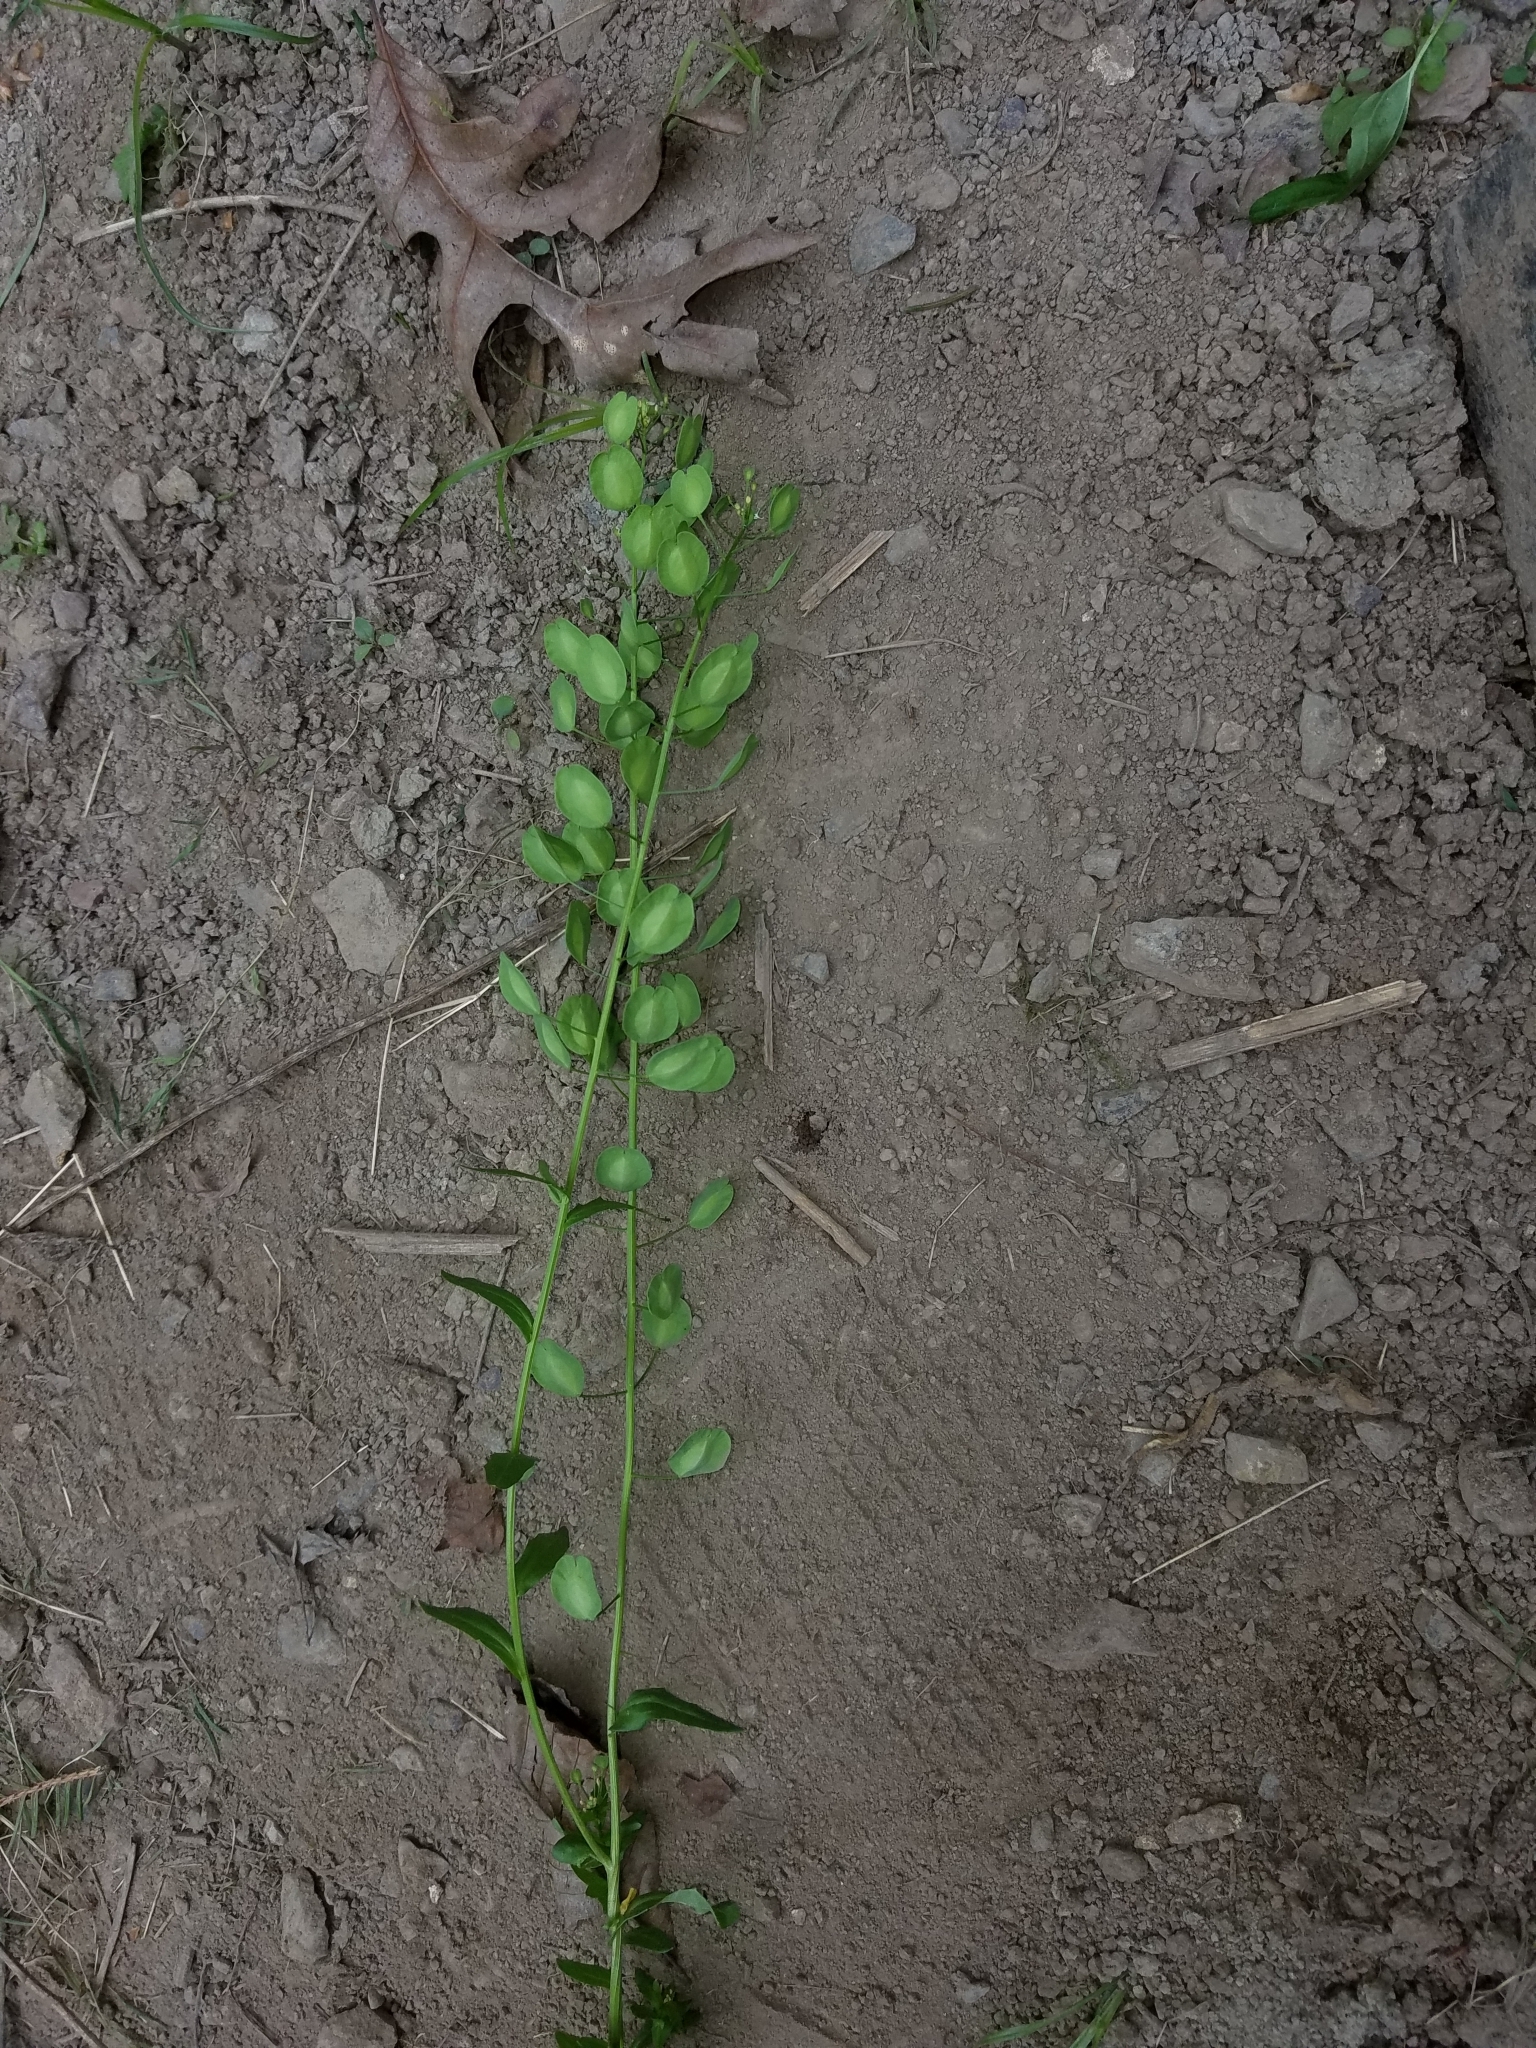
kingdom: Plantae
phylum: Tracheophyta
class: Magnoliopsida
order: Brassicales
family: Brassicaceae
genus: Thlaspi
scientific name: Thlaspi arvense
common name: Field pennycress
